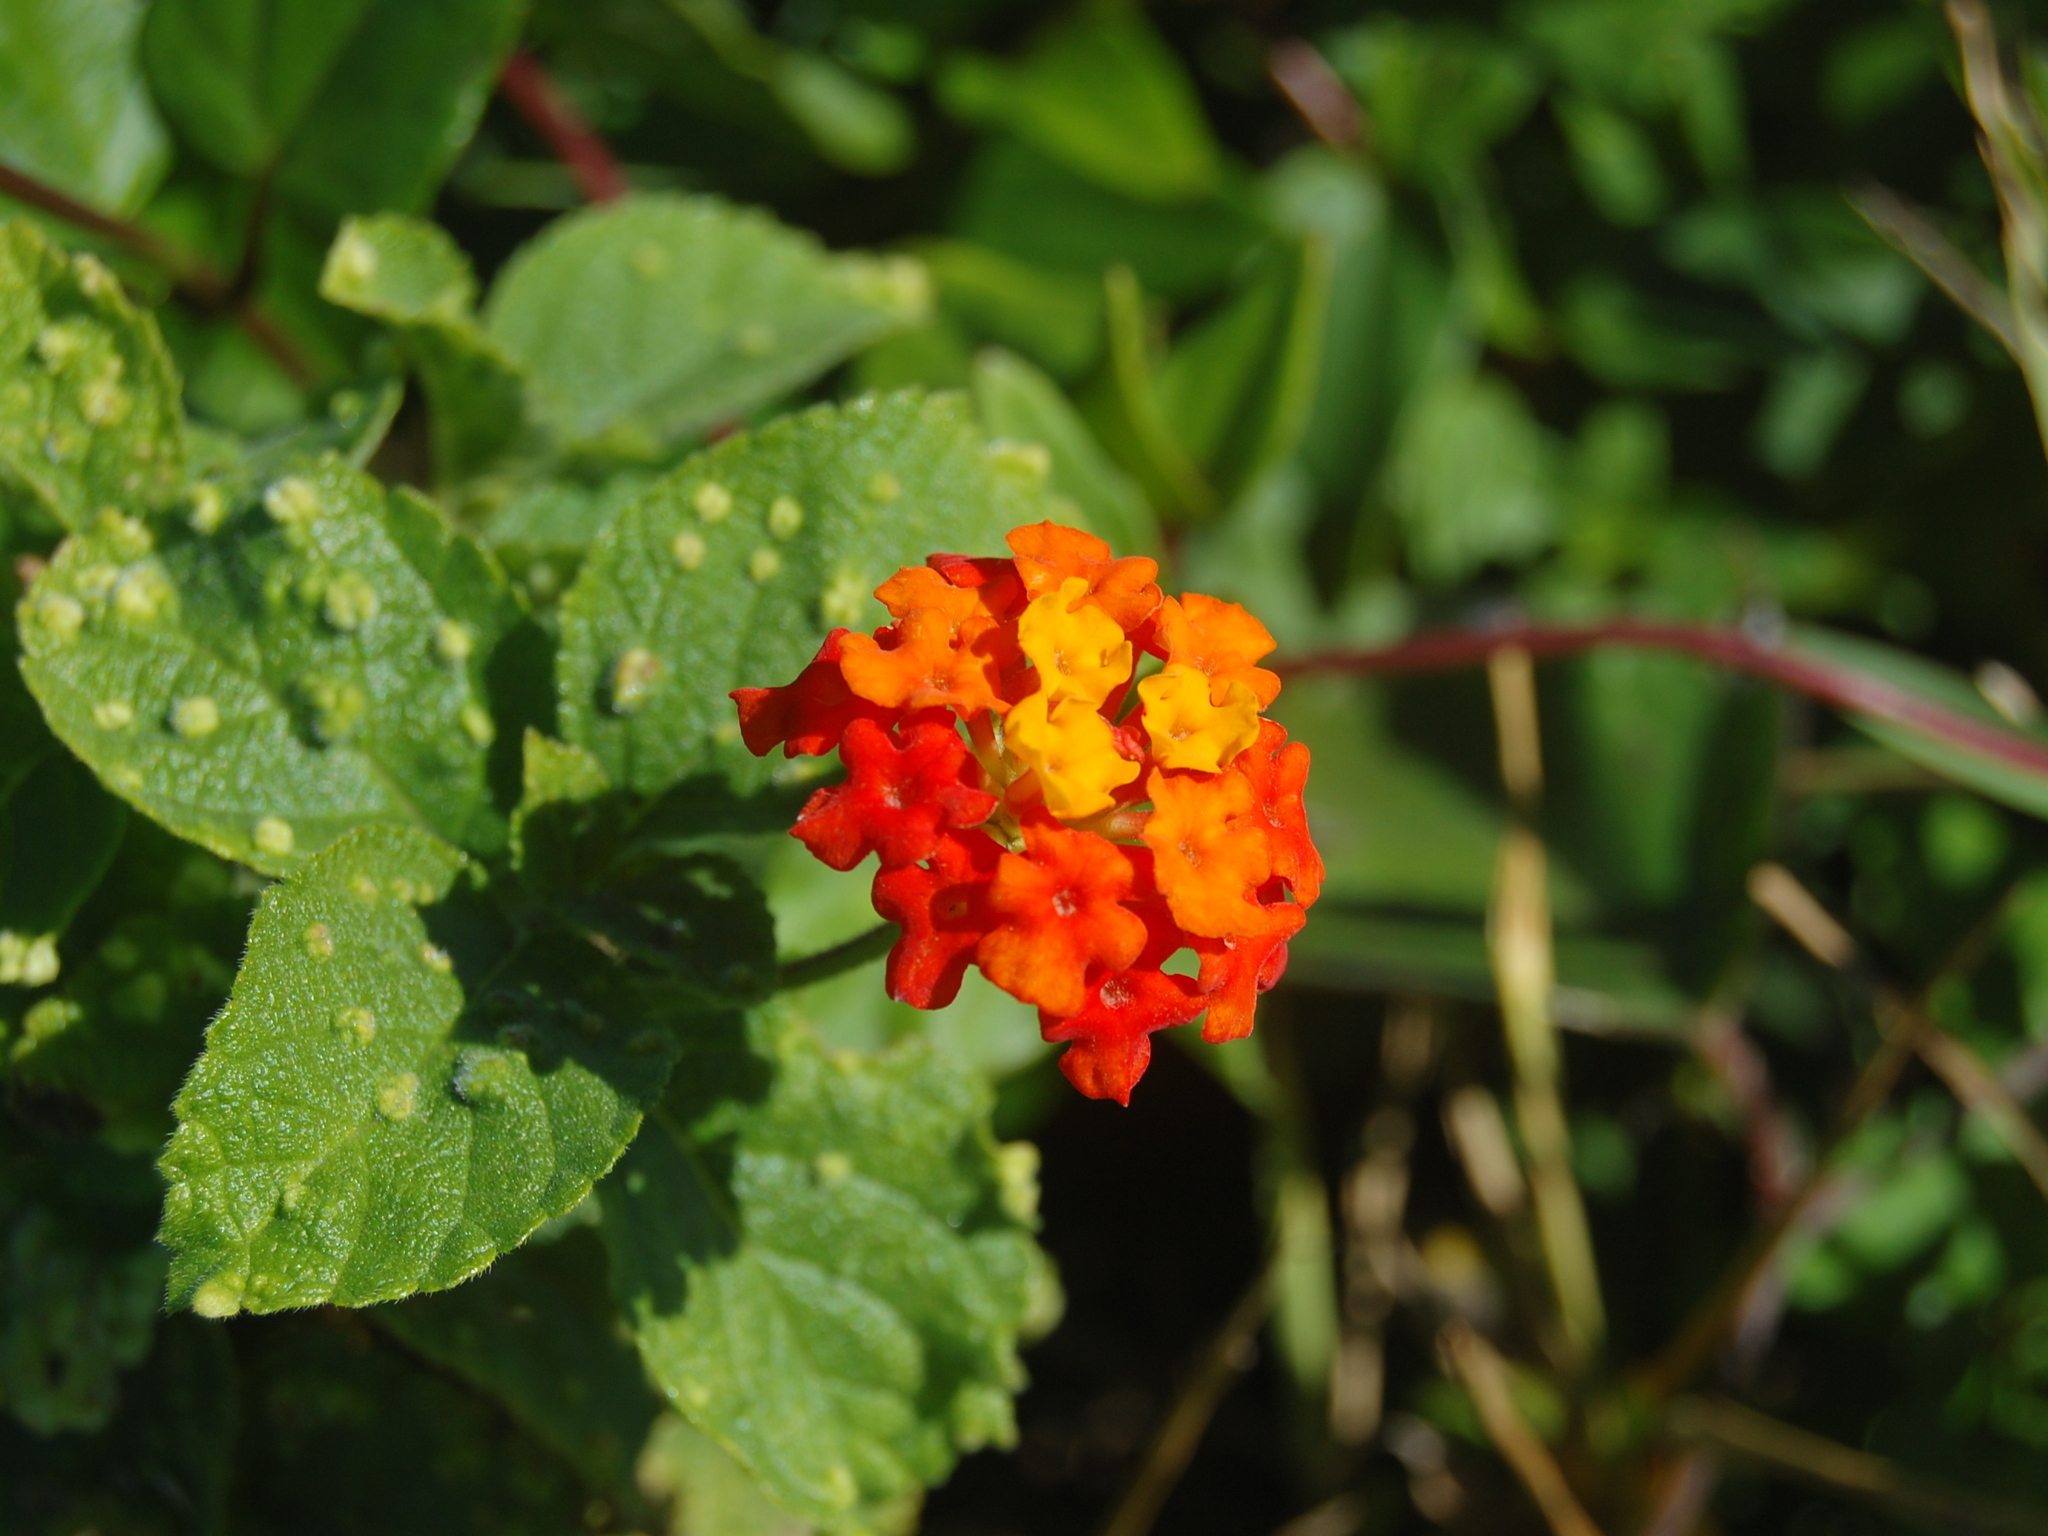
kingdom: Plantae
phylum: Tracheophyta
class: Magnoliopsida
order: Lamiales
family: Verbenaceae
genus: Lantana
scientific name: Lantana camara
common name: Lantana
